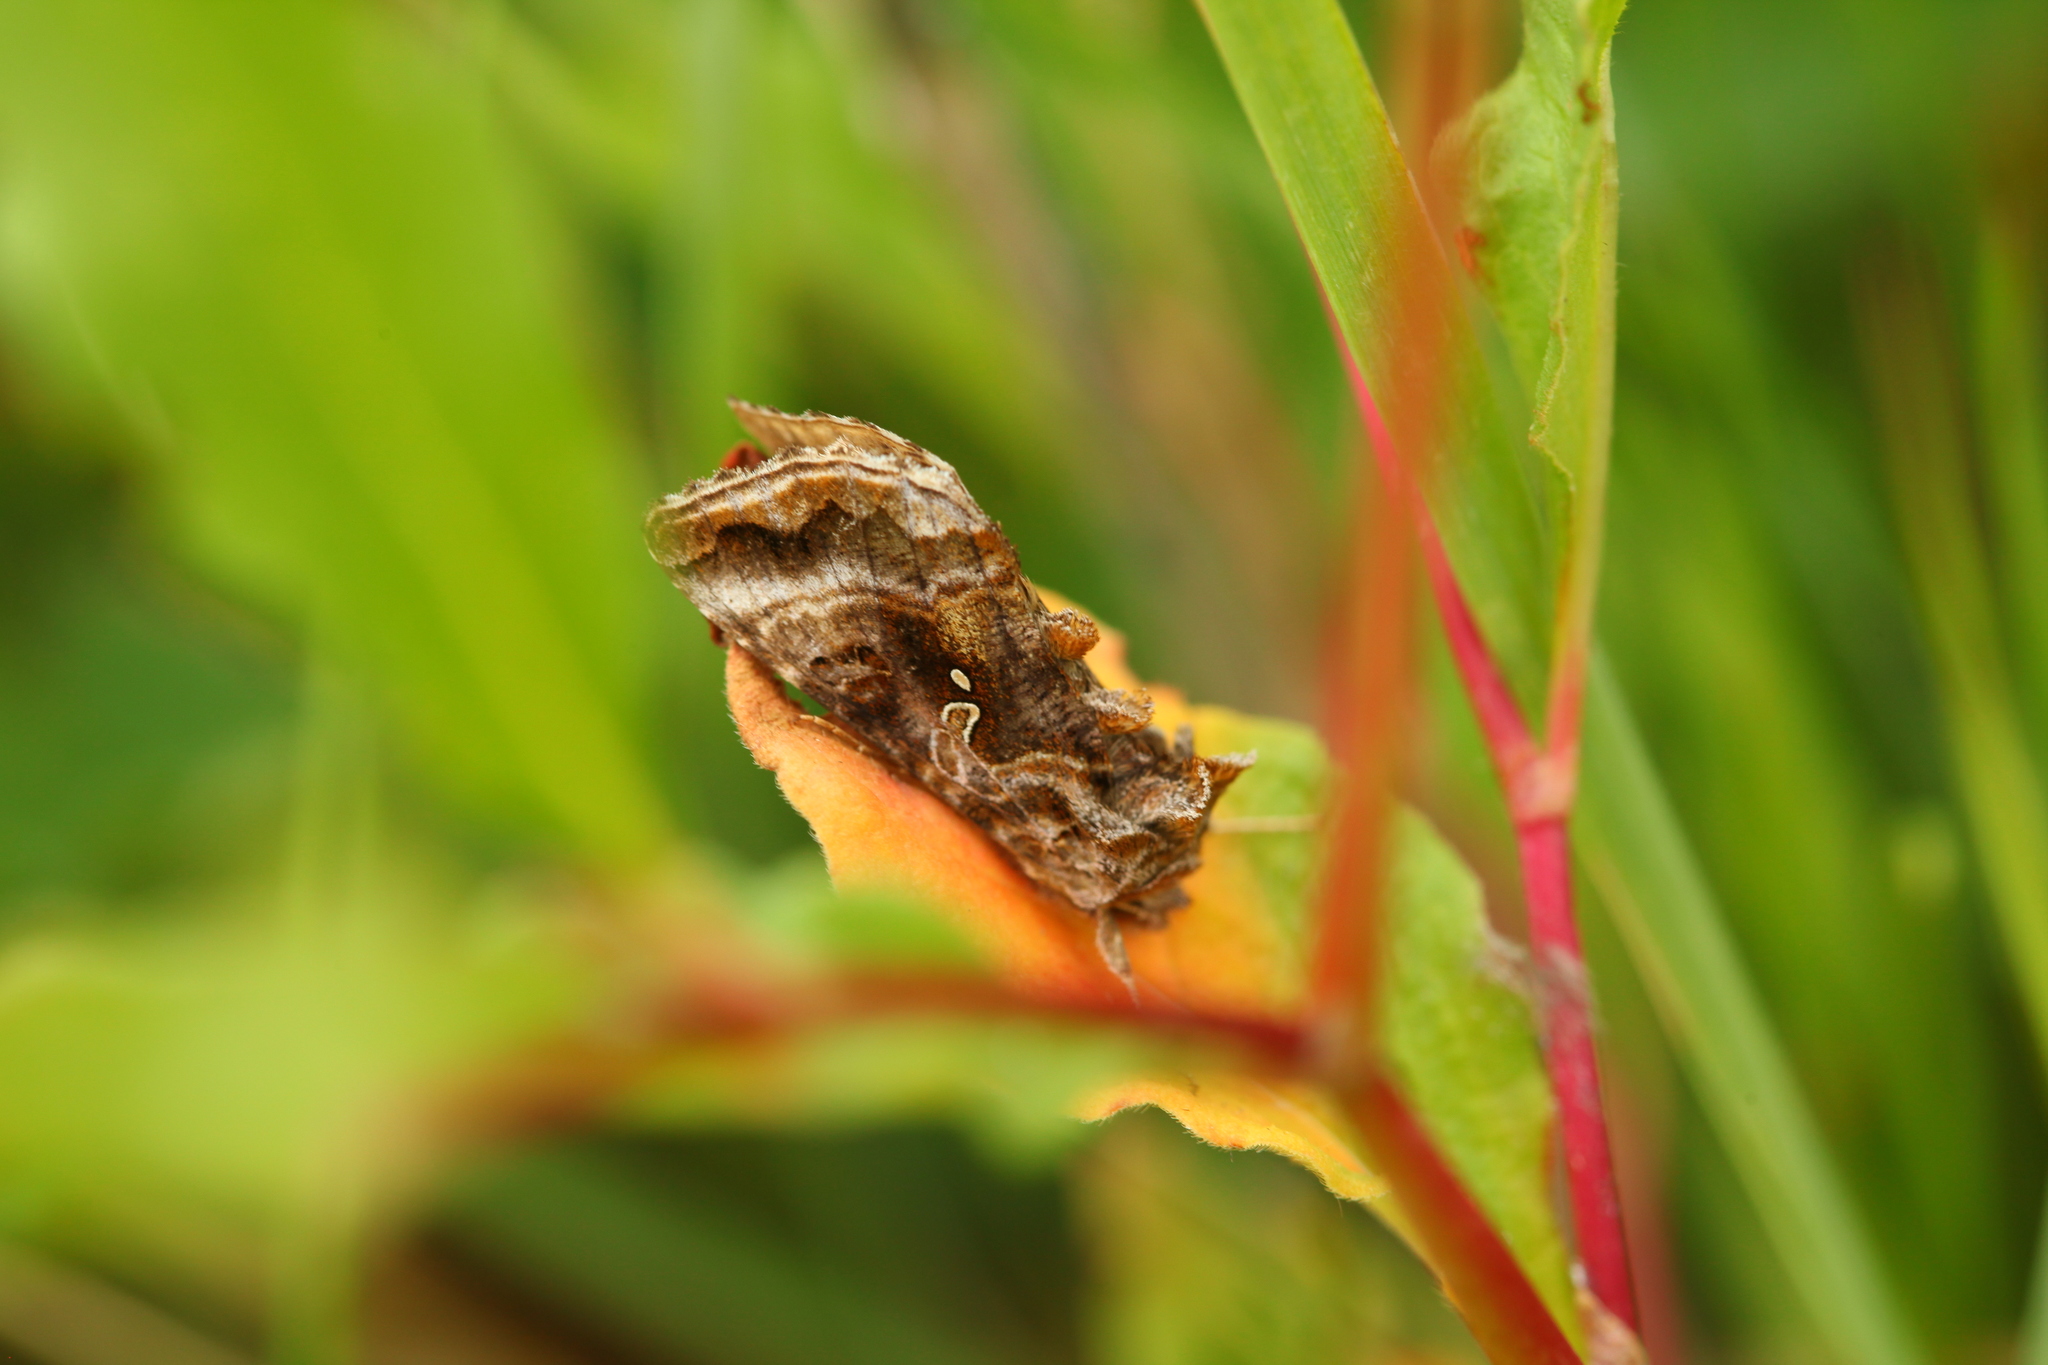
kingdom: Animalia
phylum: Arthropoda
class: Insecta
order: Lepidoptera
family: Noctuidae
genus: Autographa
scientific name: Autographa buraetica
